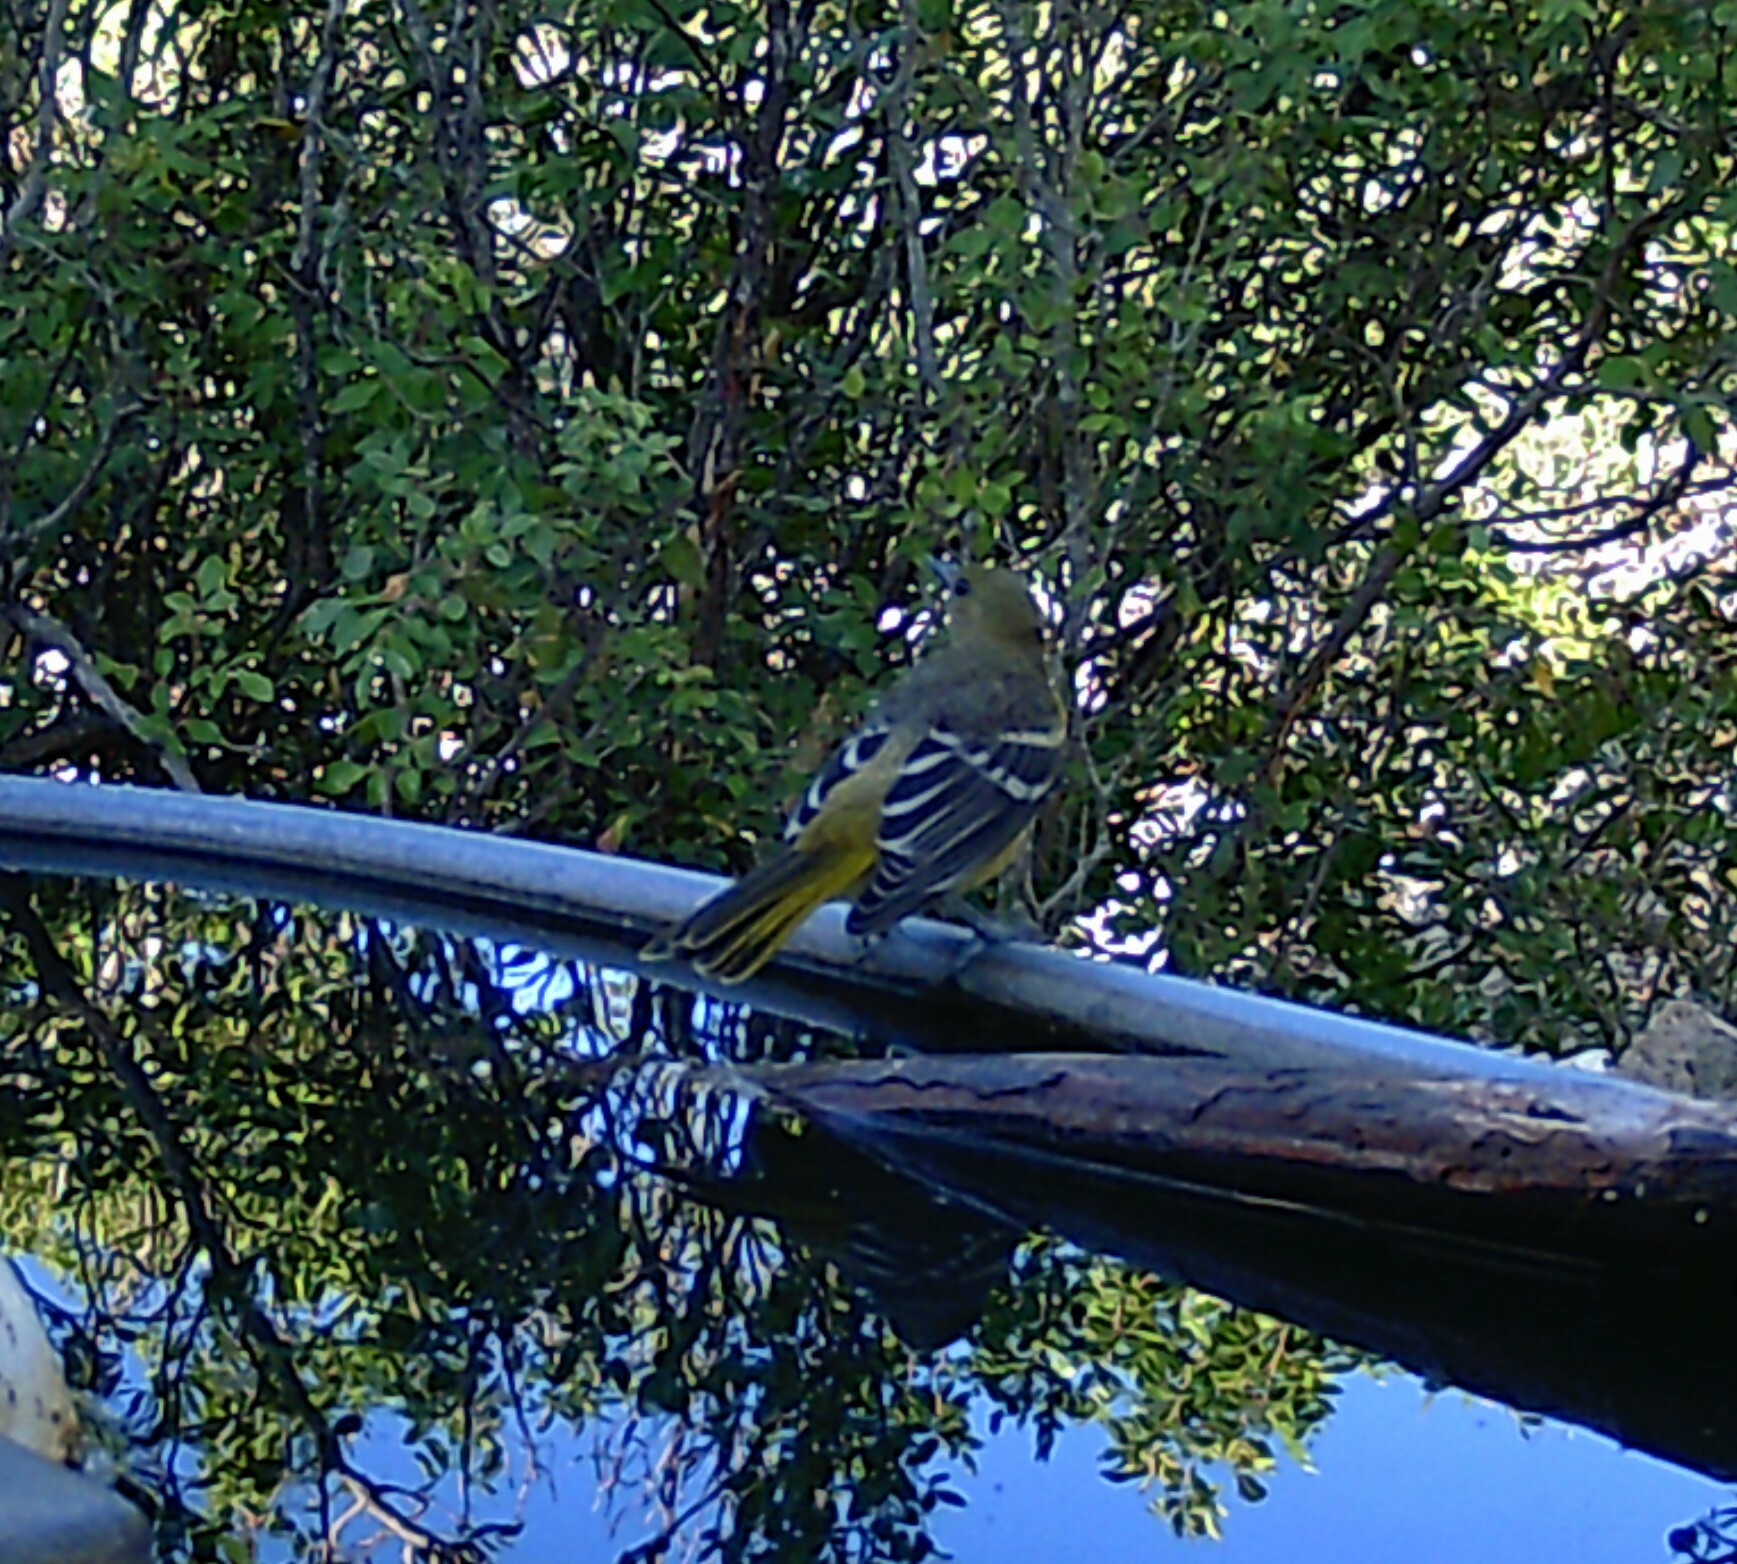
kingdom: Animalia
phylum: Chordata
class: Aves
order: Passeriformes
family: Icteridae
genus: Icterus
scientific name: Icterus parisorum
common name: Scott's oriole
